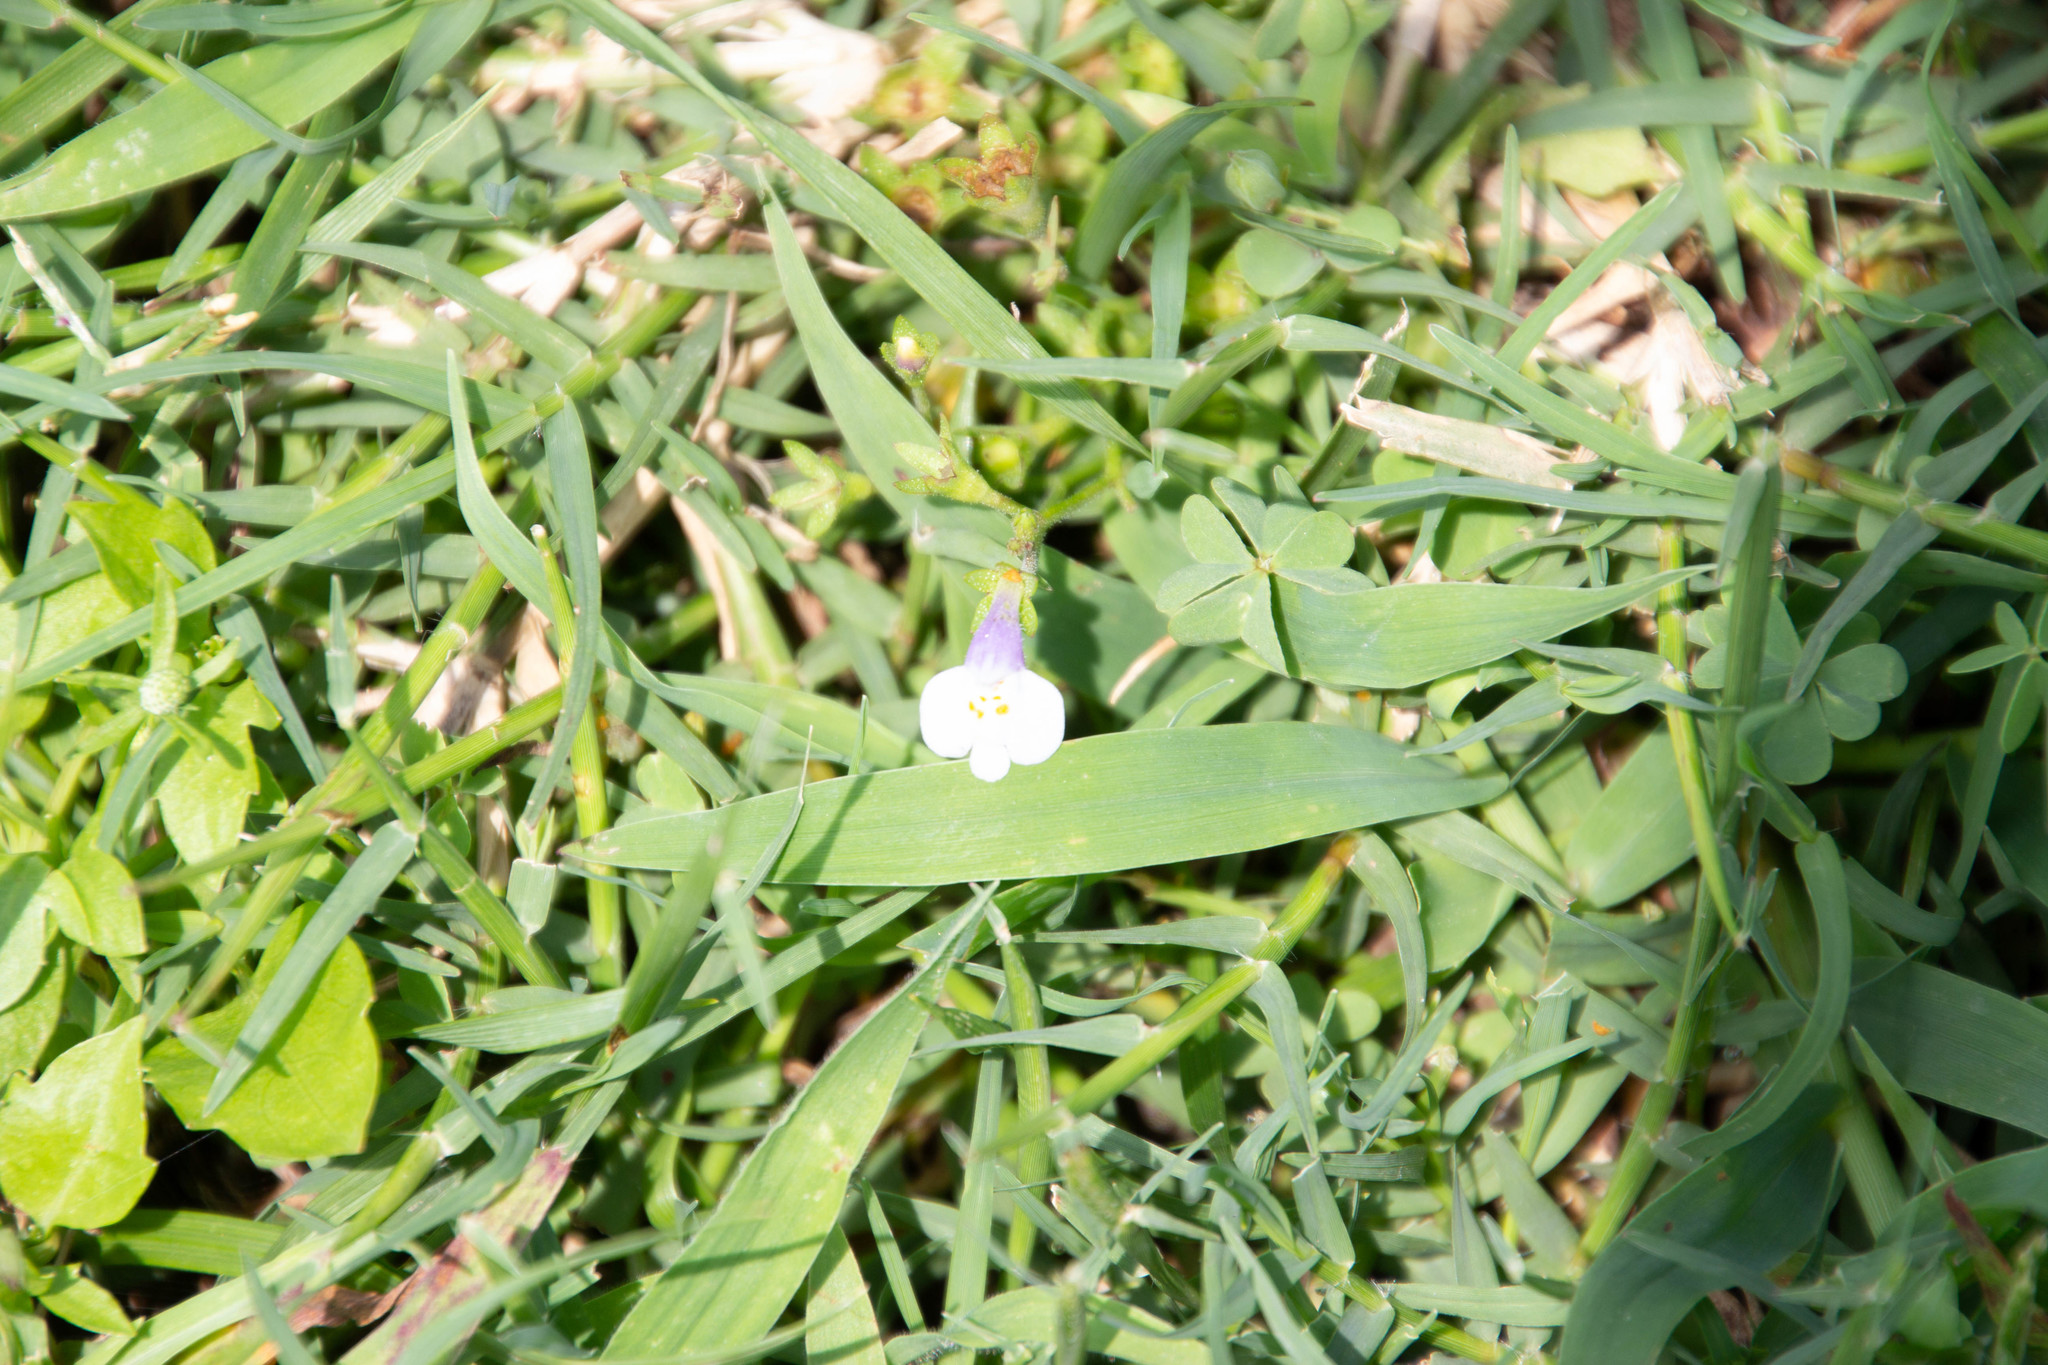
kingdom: Plantae
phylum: Tracheophyta
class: Magnoliopsida
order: Lamiales
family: Mazaceae
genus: Mazus
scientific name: Mazus pumilus
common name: Japanese mazus
